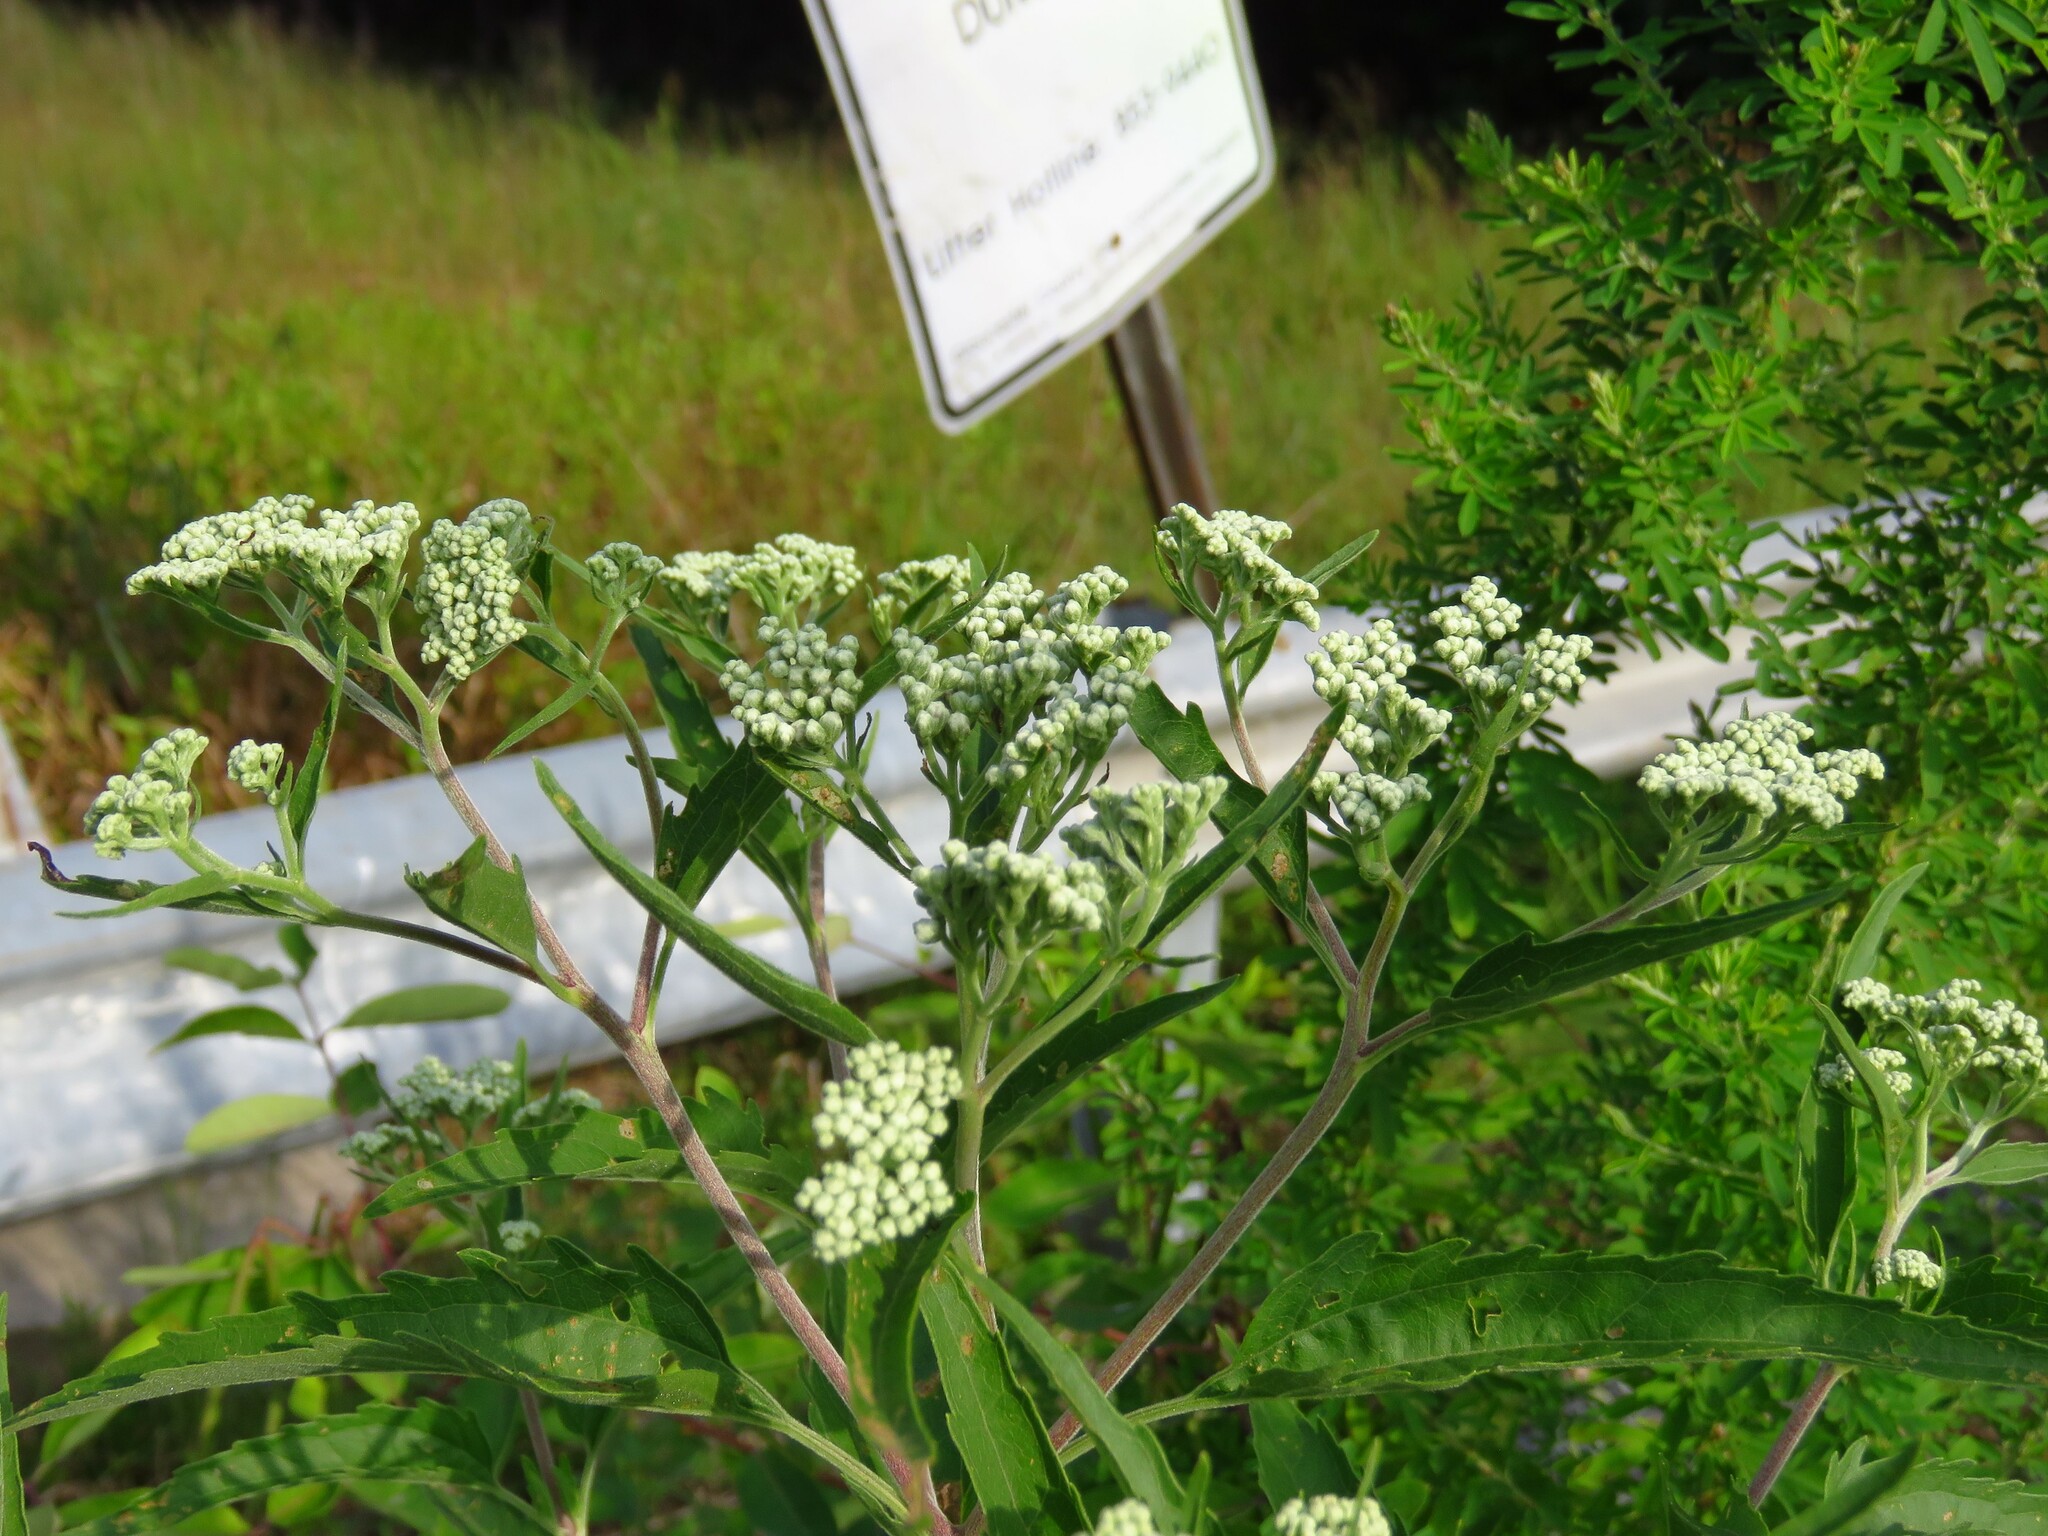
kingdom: Plantae
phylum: Tracheophyta
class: Magnoliopsida
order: Asterales
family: Asteraceae
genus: Eupatorium
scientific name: Eupatorium serotinum
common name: Late boneset
